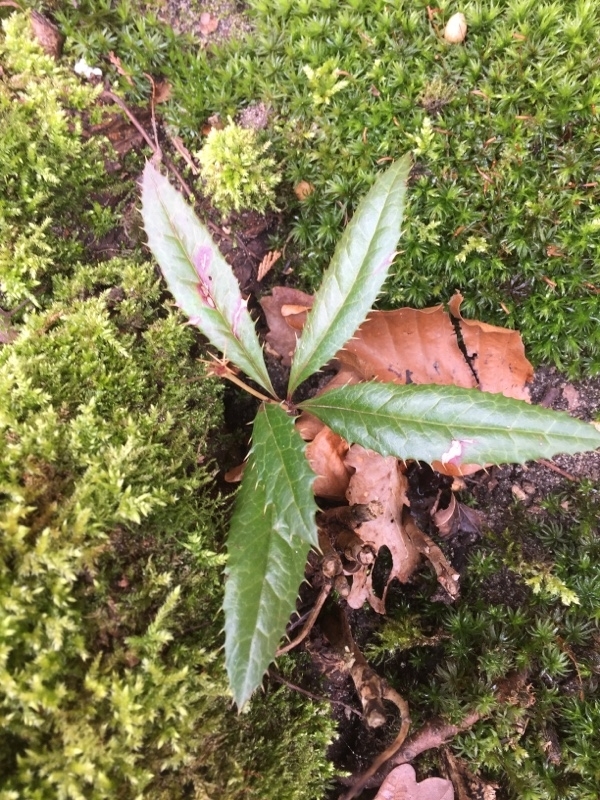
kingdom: Plantae
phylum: Tracheophyta
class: Magnoliopsida
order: Ranunculales
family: Berberidaceae
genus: Berberis
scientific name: Berberis julianae
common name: Wintergreen barberry
